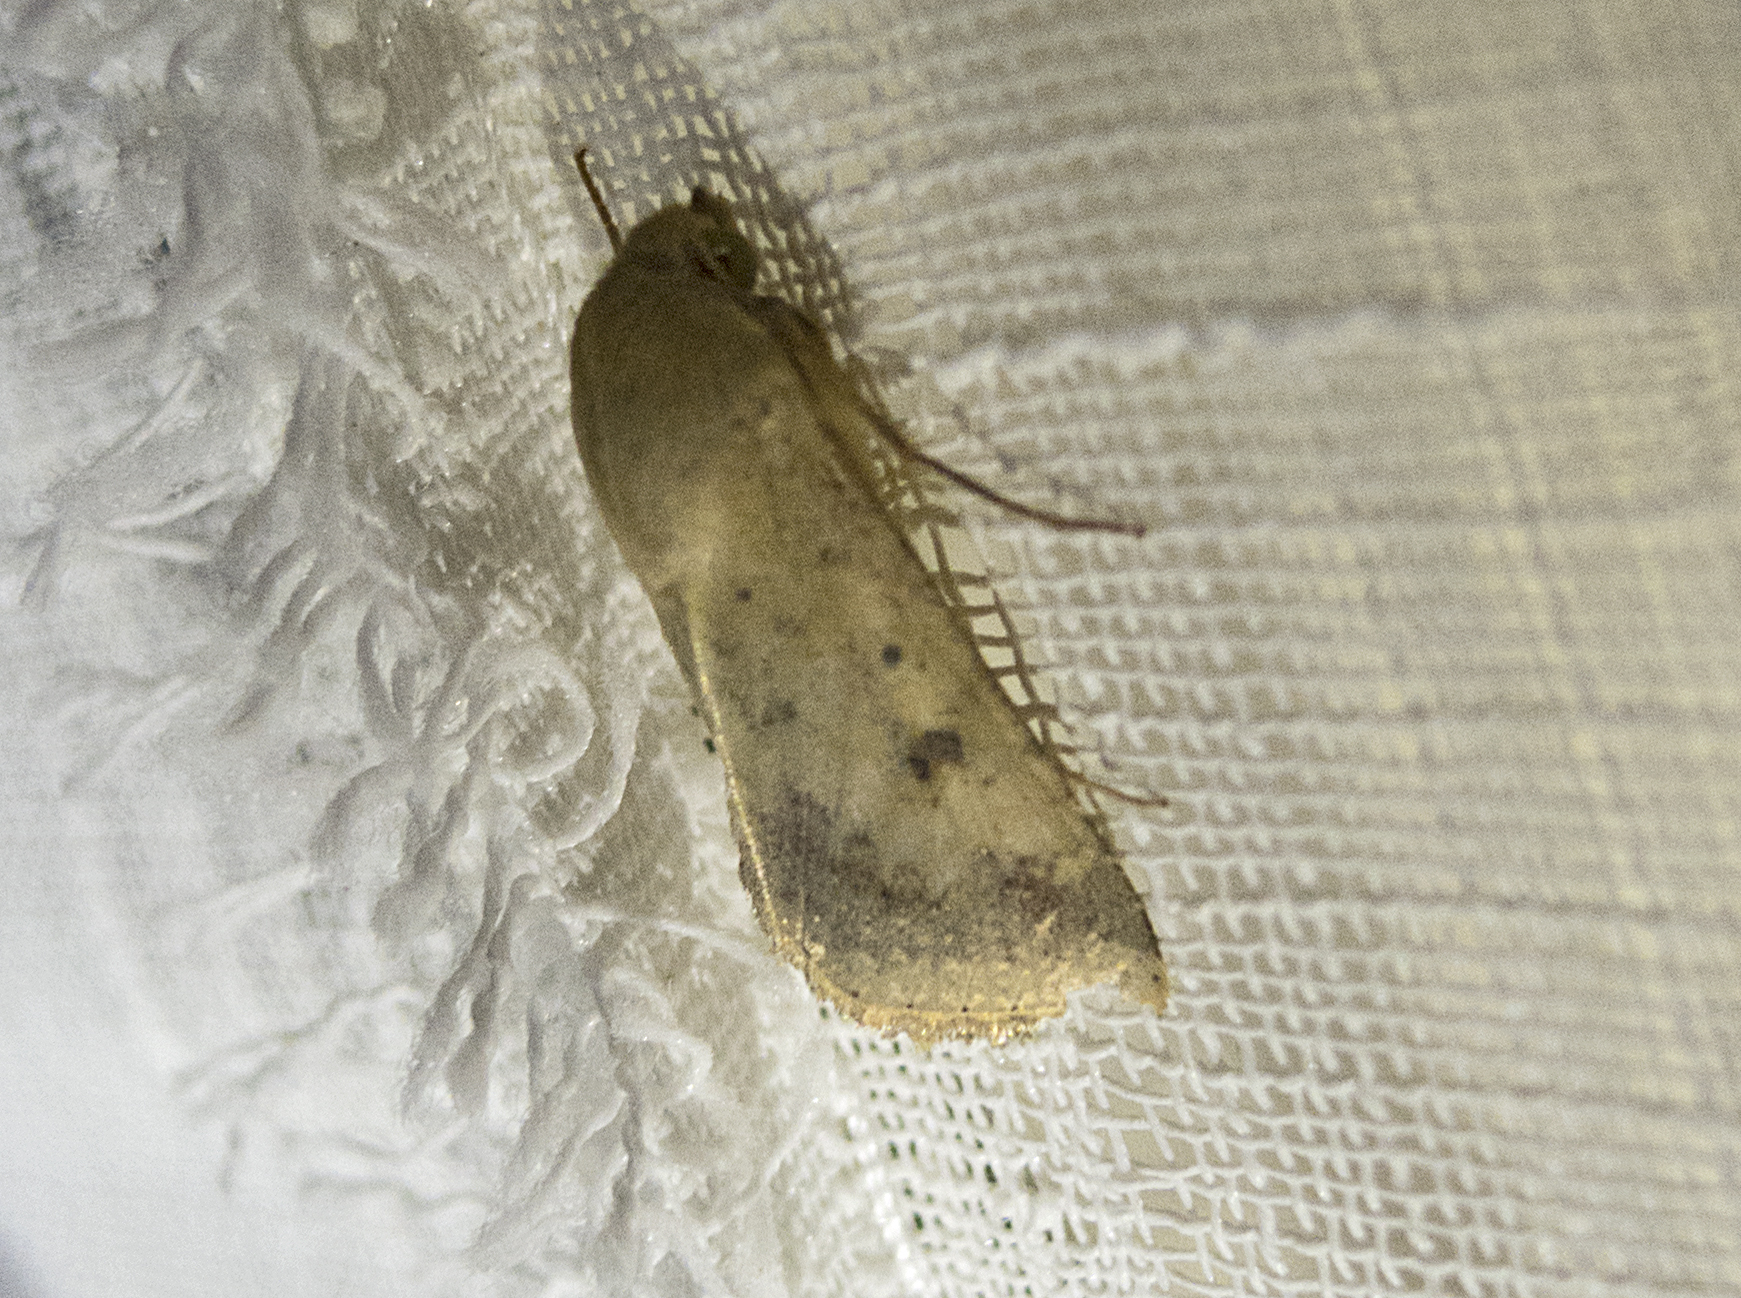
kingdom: Animalia
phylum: Arthropoda
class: Insecta
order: Lepidoptera
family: Noctuidae
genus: Helicoverpa
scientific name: Helicoverpa armigera
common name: Cotton bollworm
